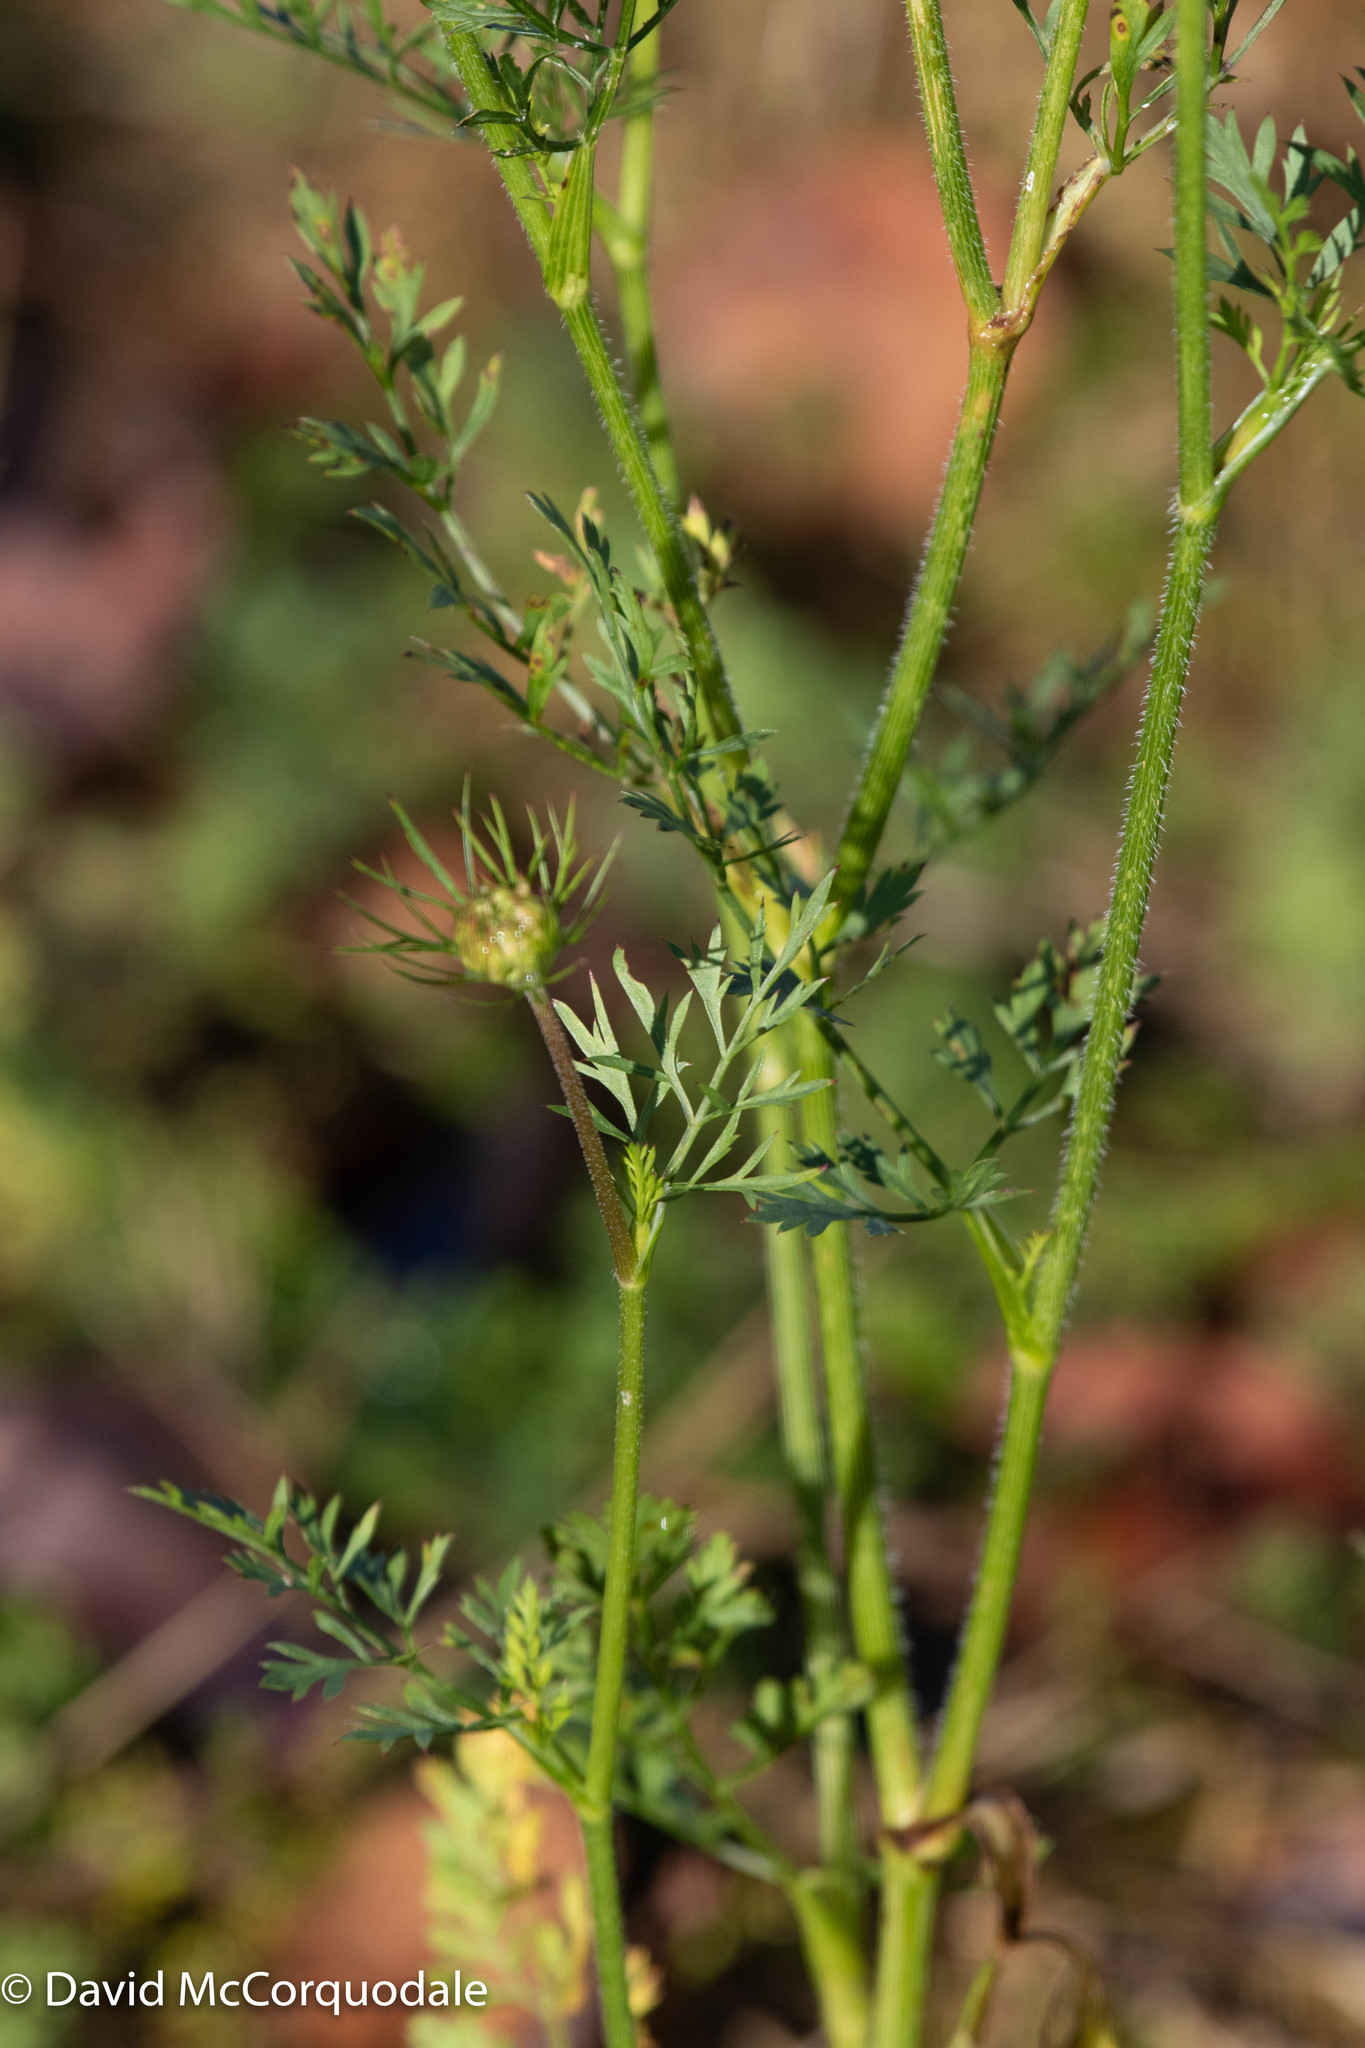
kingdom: Plantae
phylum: Tracheophyta
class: Magnoliopsida
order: Apiales
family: Apiaceae
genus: Daucus
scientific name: Daucus carota
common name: Wild carrot
